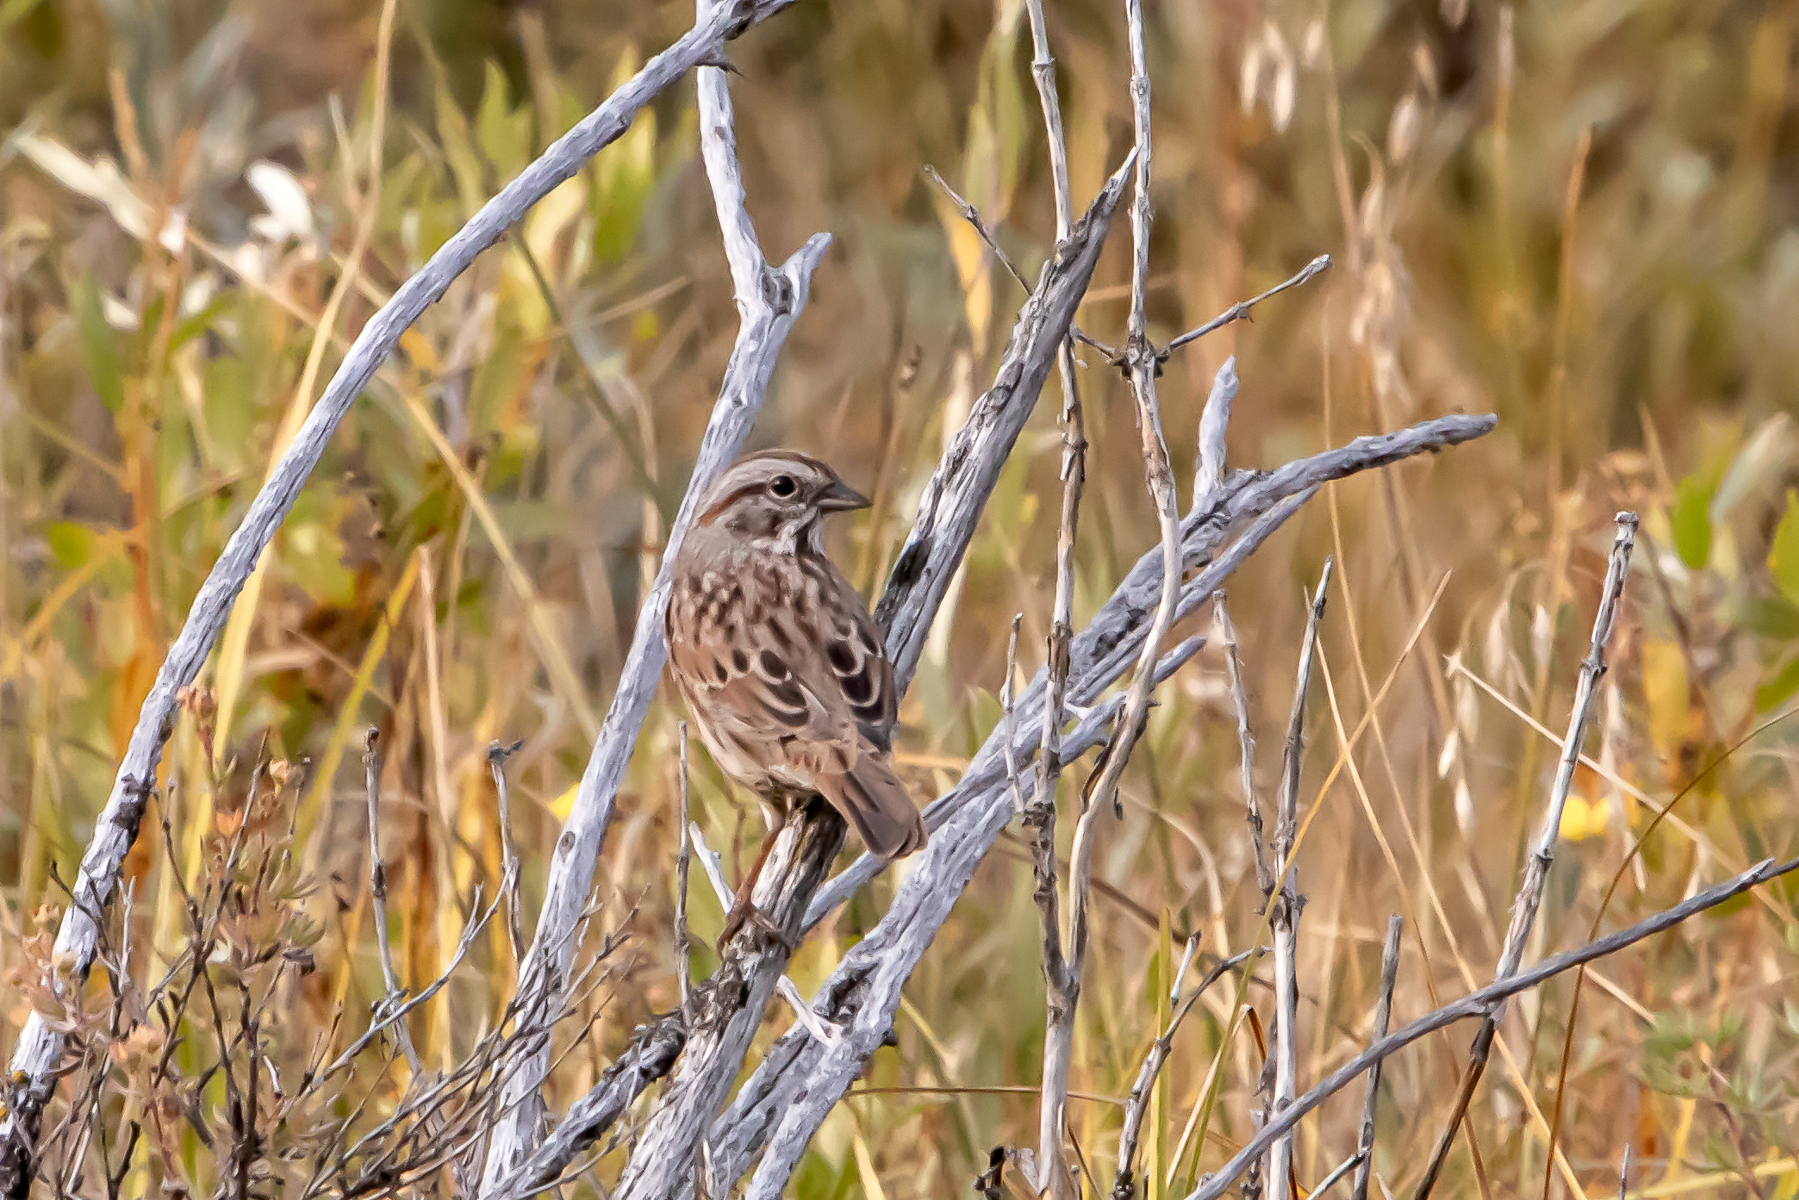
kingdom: Animalia
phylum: Chordata
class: Aves
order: Passeriformes
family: Passerellidae
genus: Melospiza
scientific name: Melospiza melodia
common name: Song sparrow
